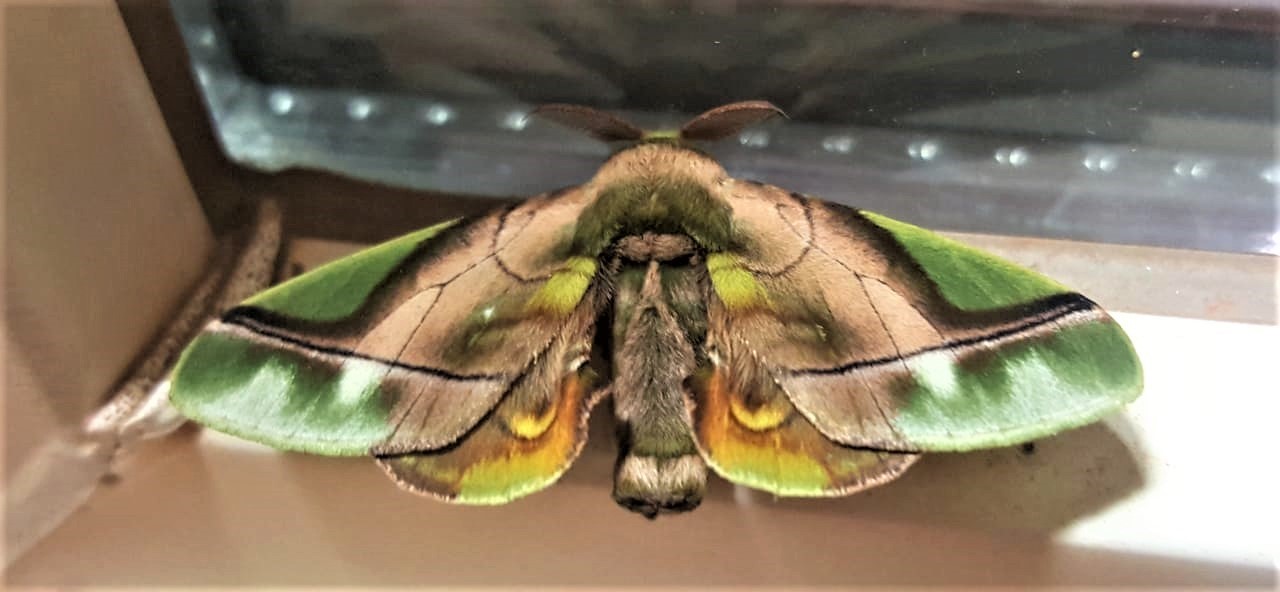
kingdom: Animalia
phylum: Arthropoda
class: Insecta
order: Lepidoptera
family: Bombycidae
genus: Epia
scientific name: Epia muscosa
